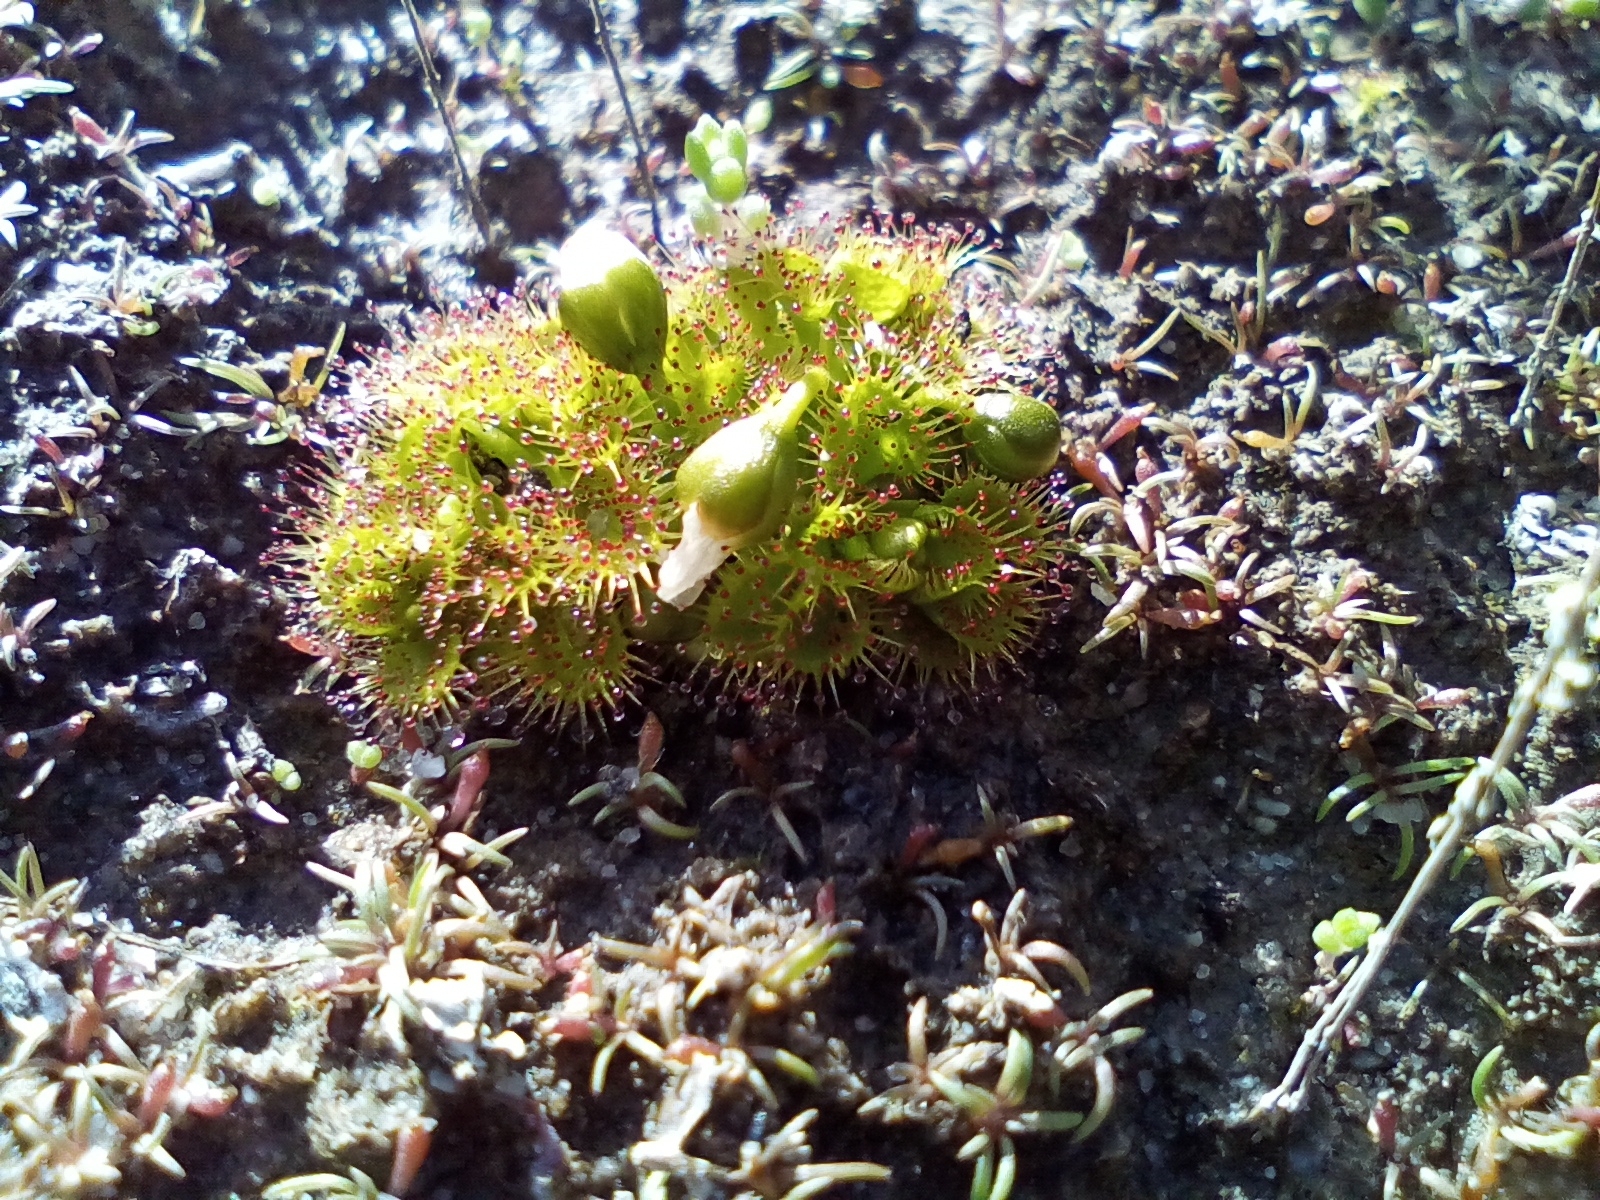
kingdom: Plantae
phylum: Tracheophyta
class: Magnoliopsida
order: Caryophyllales
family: Droseraceae
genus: Drosera
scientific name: Drosera ramellosa
